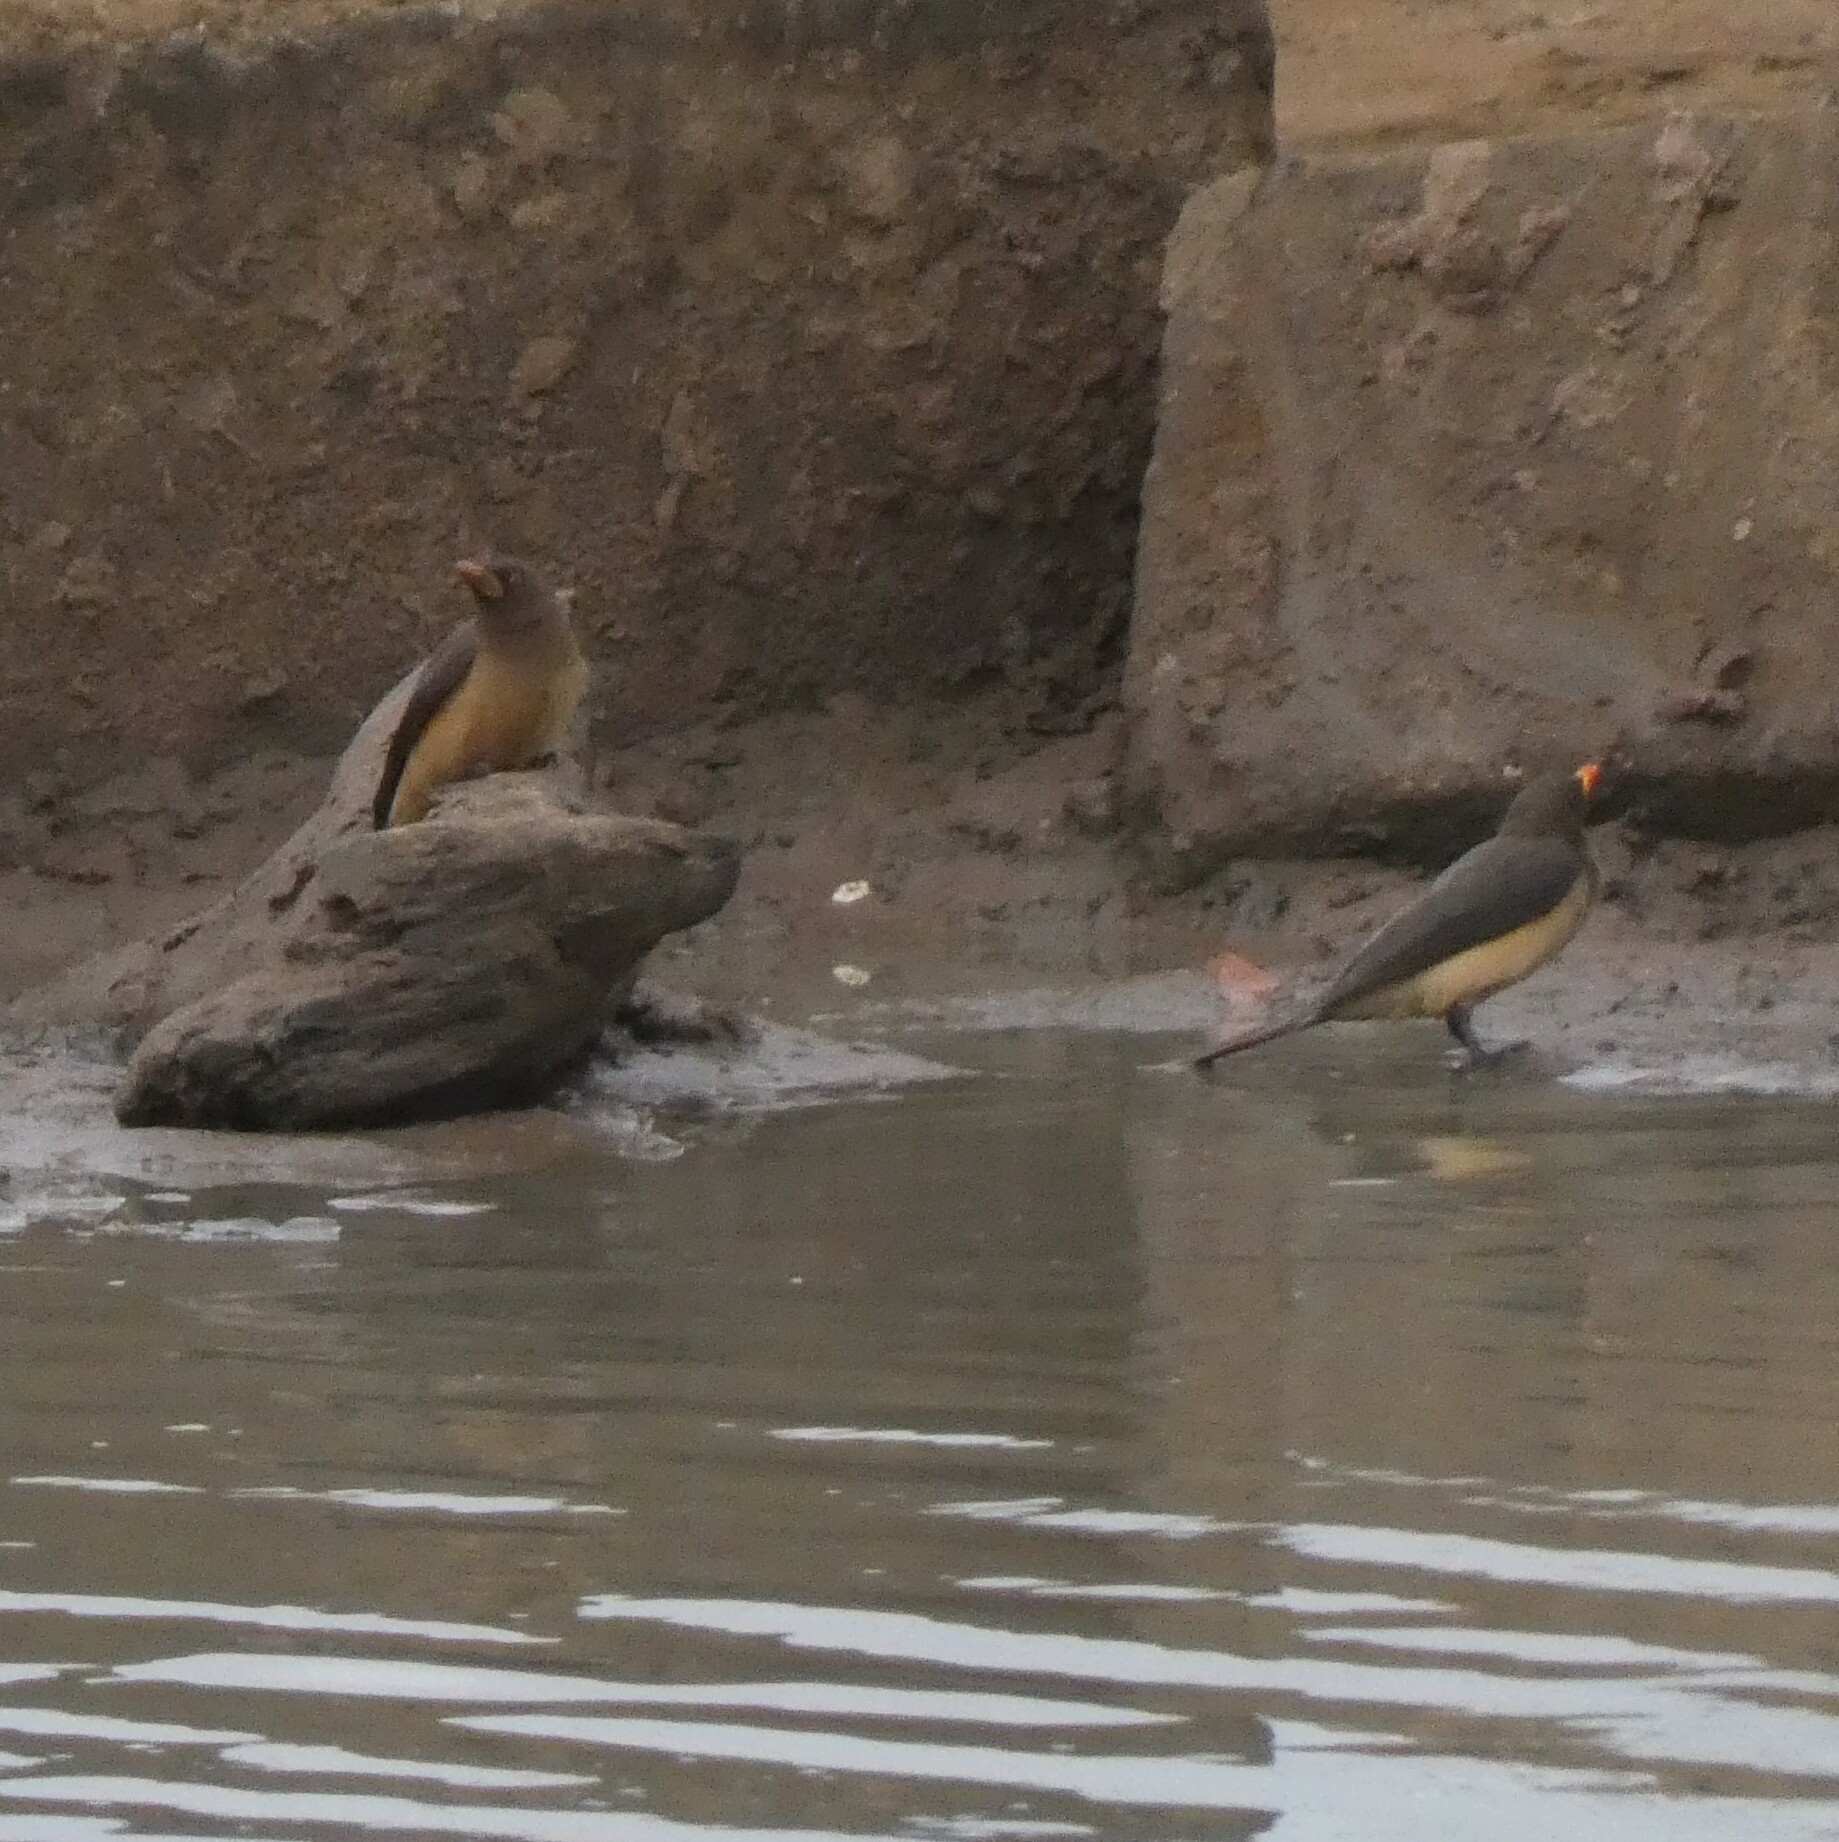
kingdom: Animalia
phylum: Chordata
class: Aves
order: Passeriformes
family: Buphagidae
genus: Buphagus
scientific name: Buphagus africanus
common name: Yellow-billed oxpecker
